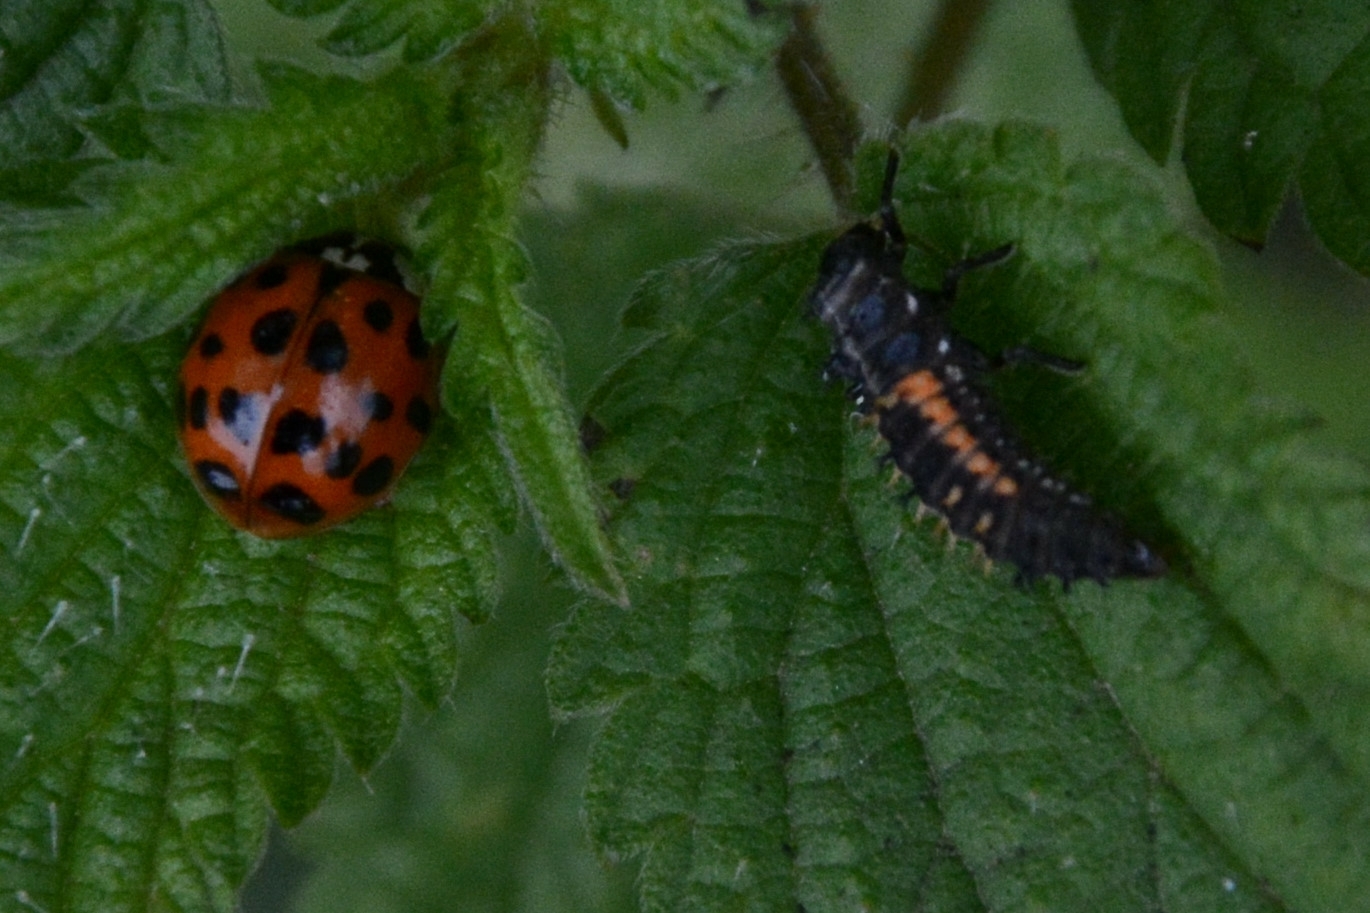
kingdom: Animalia
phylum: Arthropoda
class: Insecta
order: Coleoptera
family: Coccinellidae
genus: Harmonia
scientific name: Harmonia axyridis
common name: Harlequin ladybird
